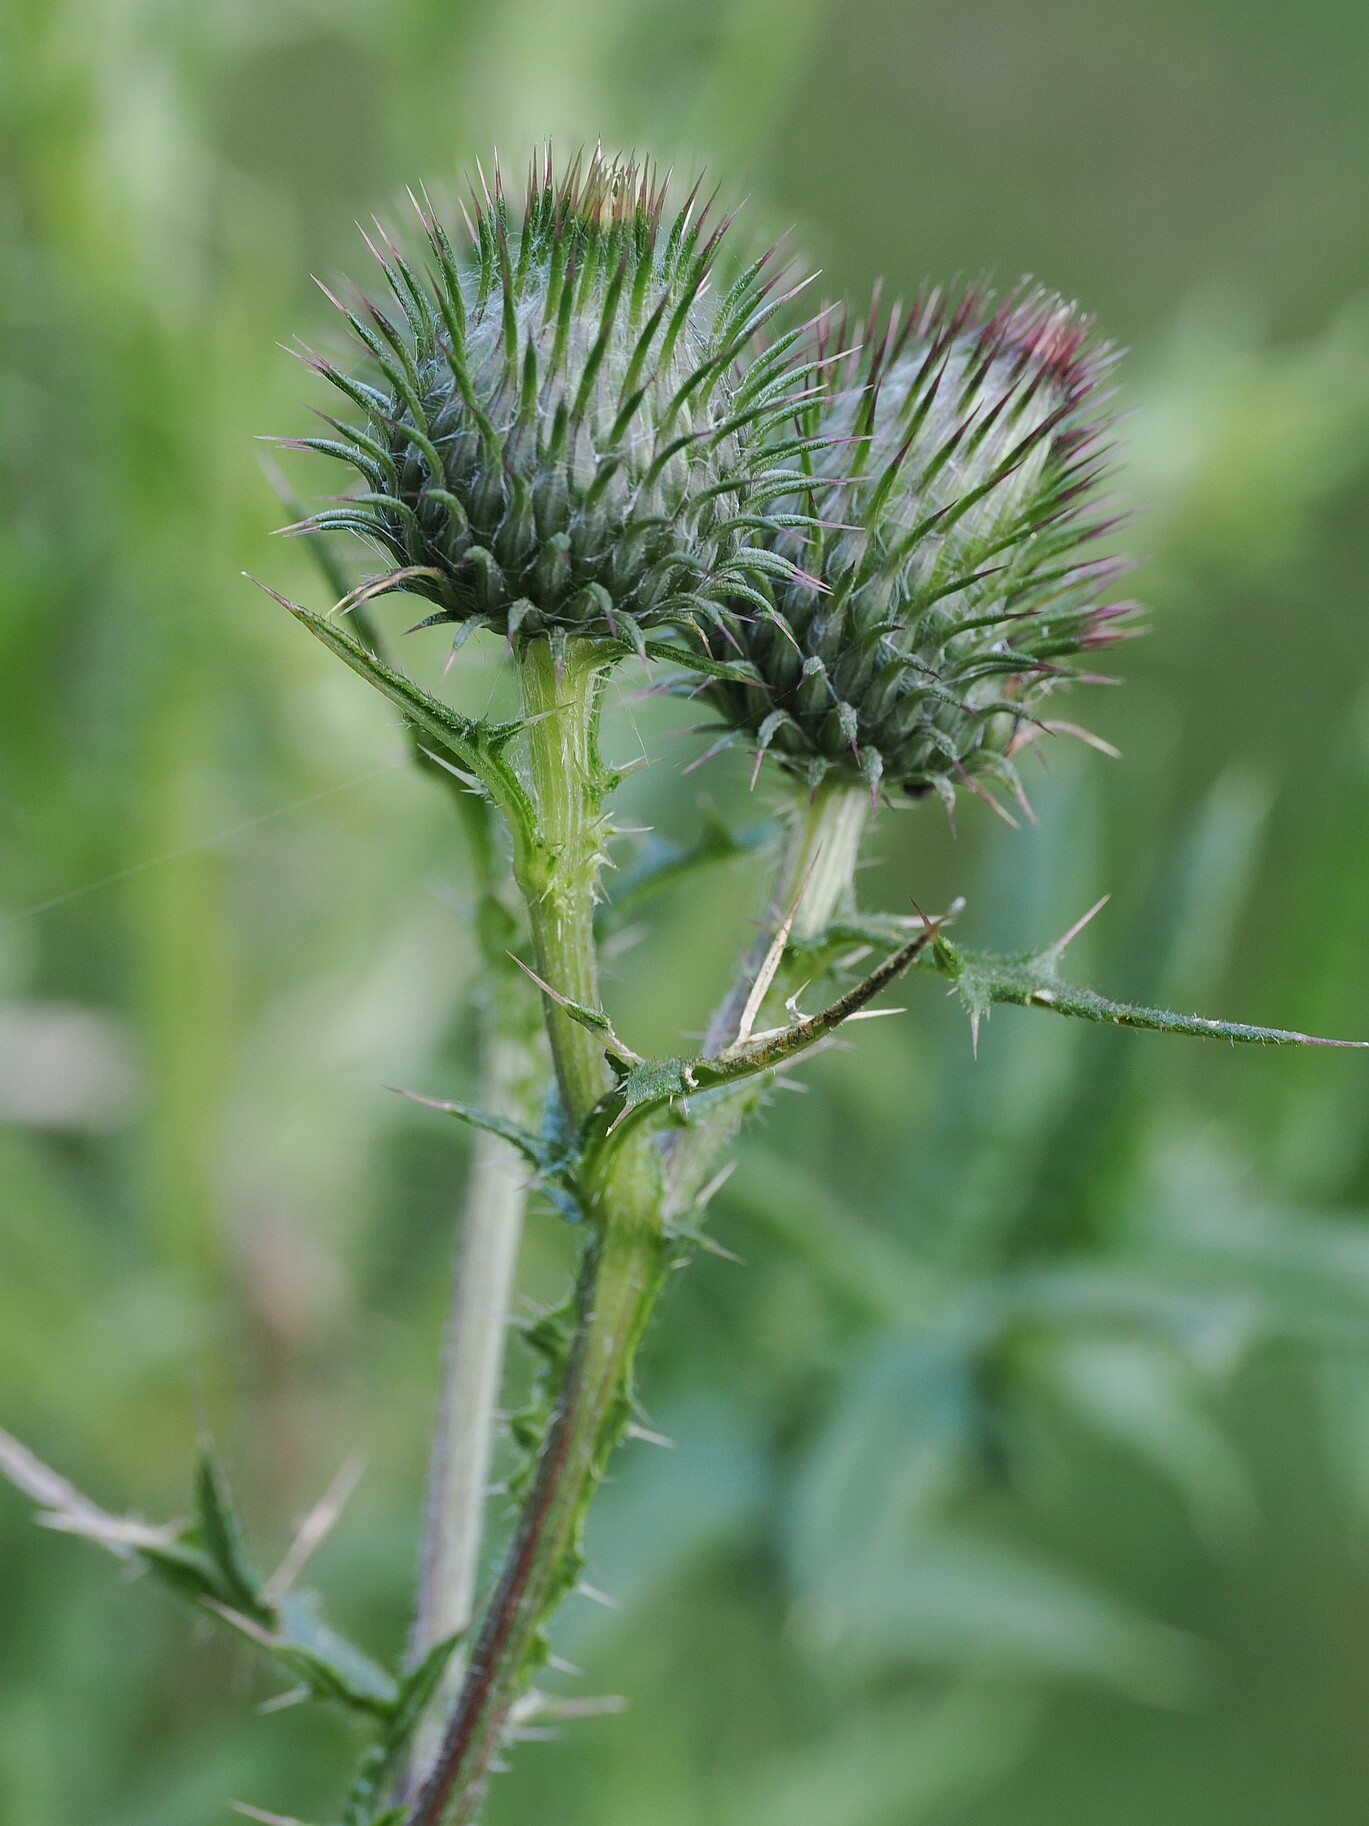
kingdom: Plantae
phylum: Tracheophyta
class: Magnoliopsida
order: Asterales
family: Asteraceae
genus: Cirsium
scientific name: Cirsium vulgare
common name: Bull thistle
